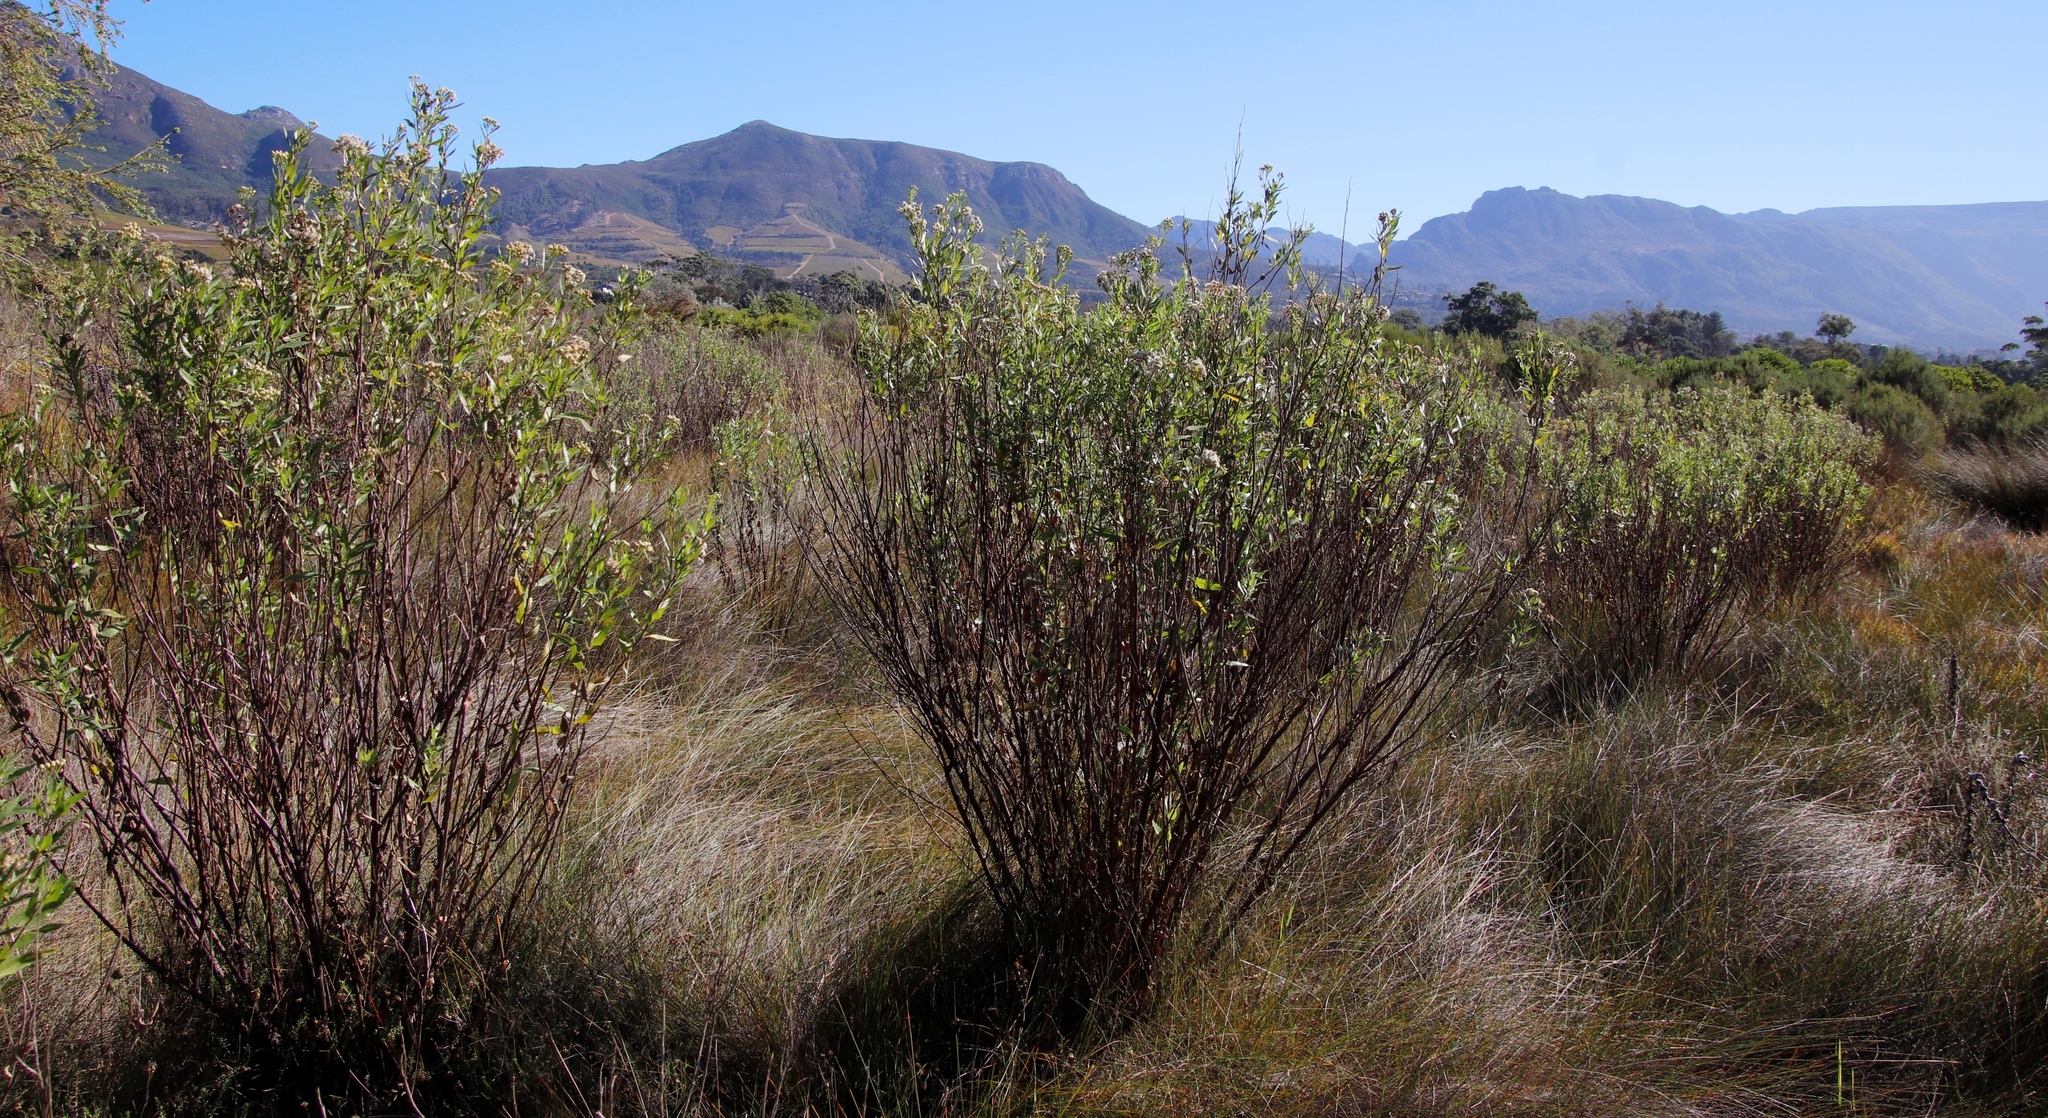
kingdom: Plantae
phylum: Tracheophyta
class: Magnoliopsida
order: Asterales
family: Asteraceae
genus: Nidorella
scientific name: Nidorella ivifolia
